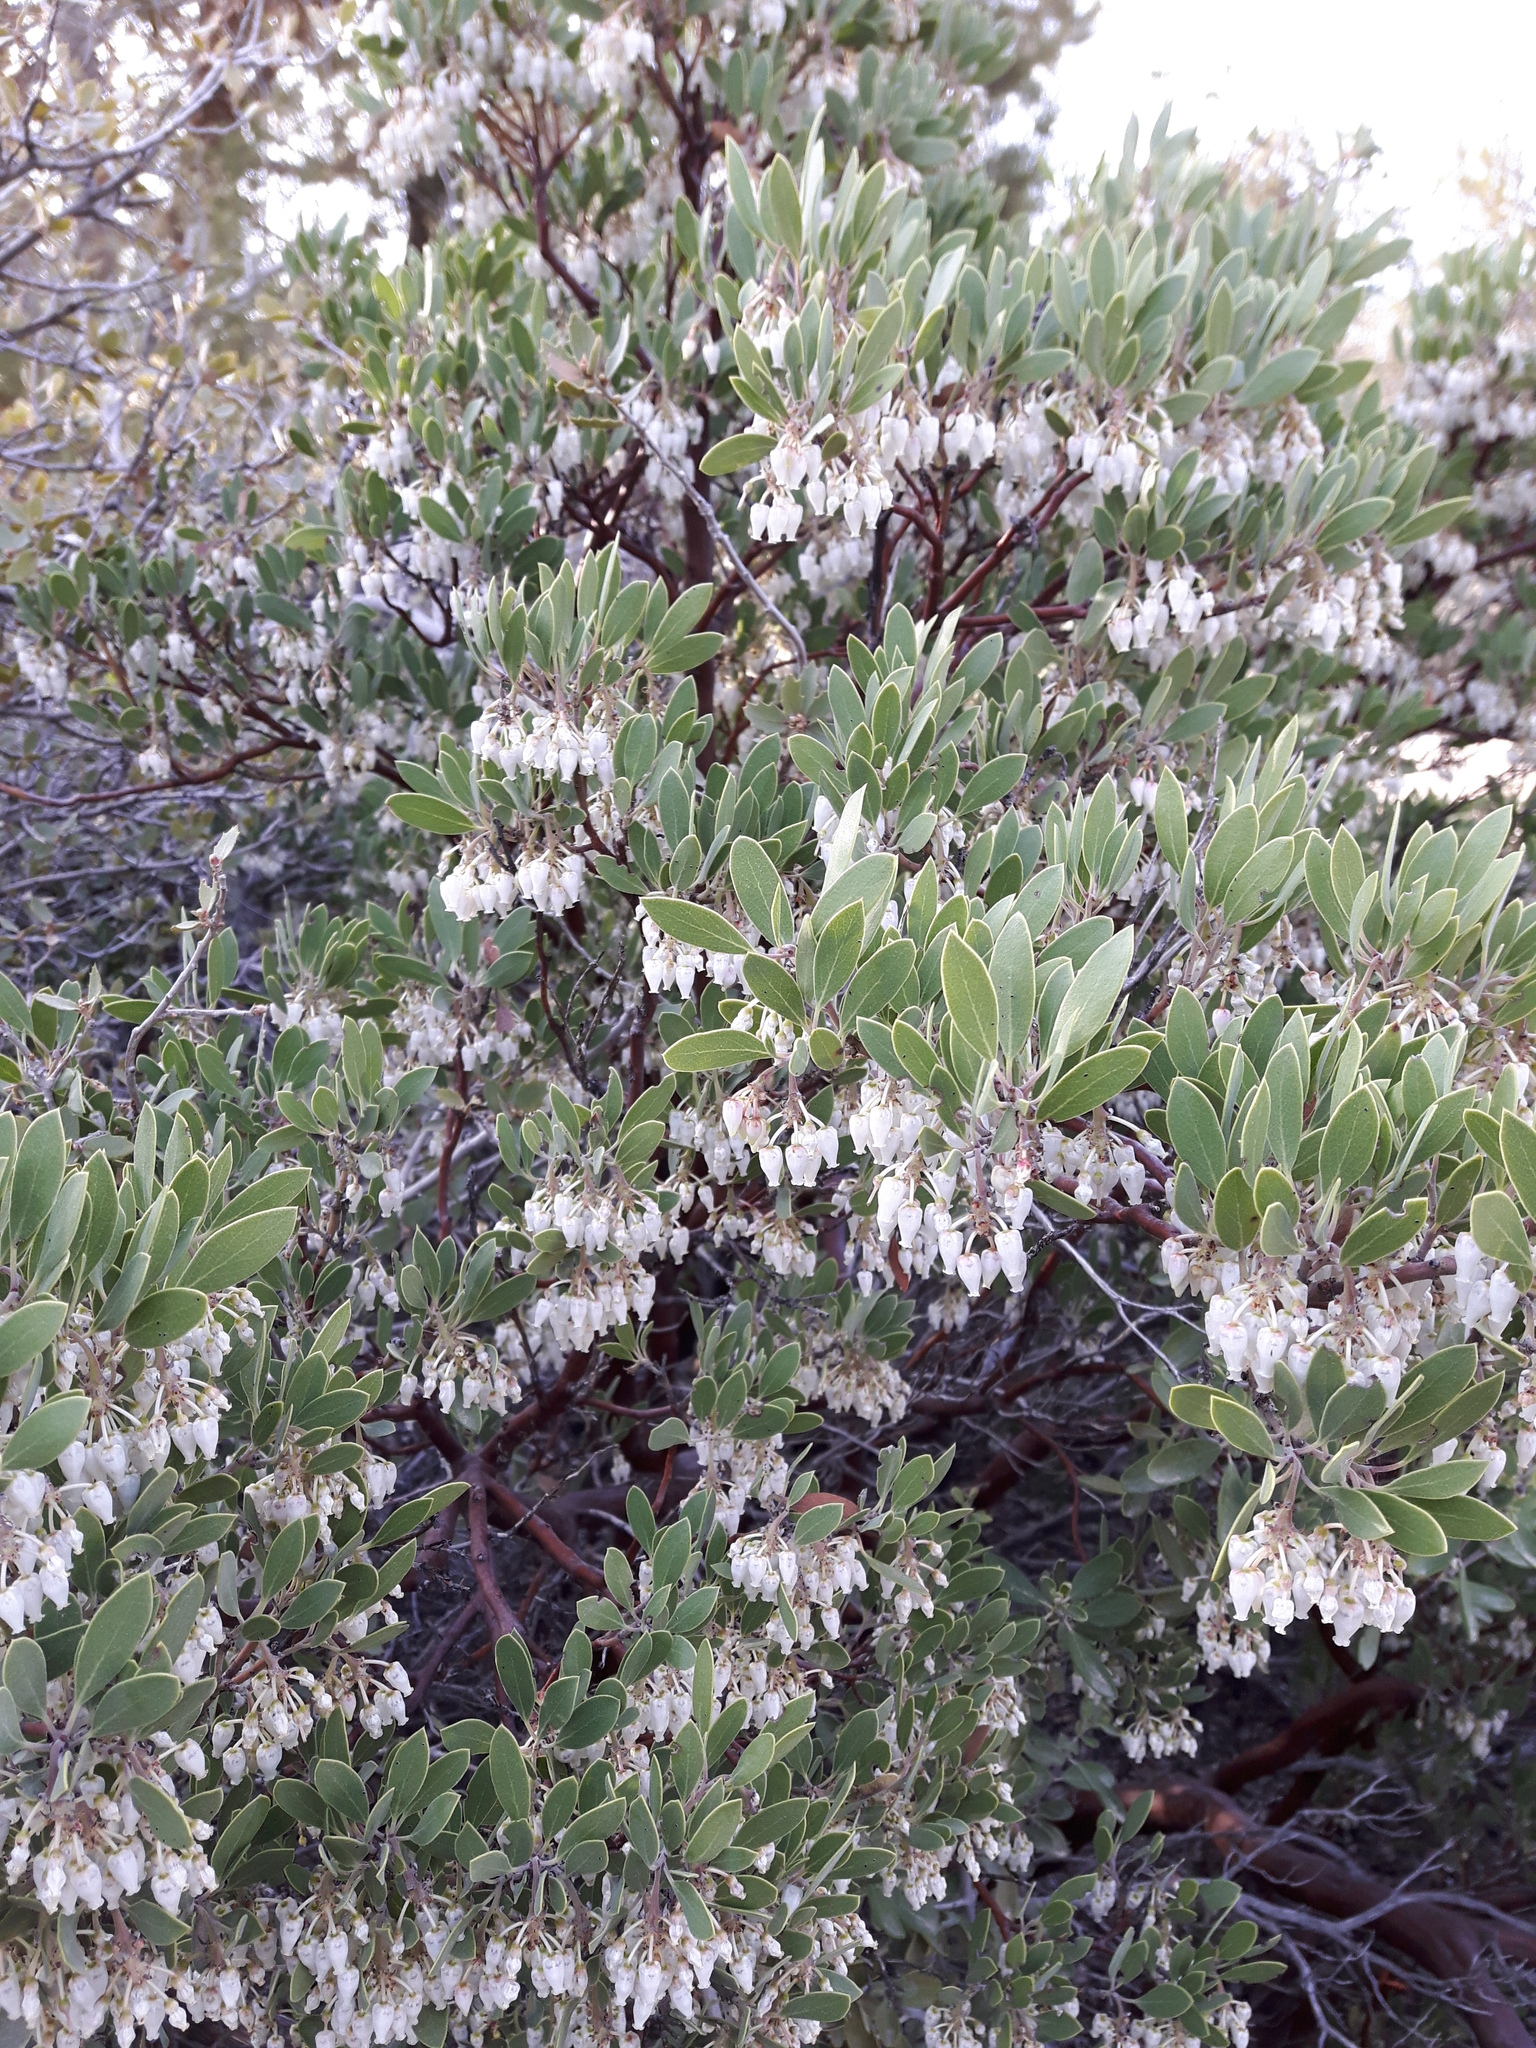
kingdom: Plantae
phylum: Tracheophyta
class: Magnoliopsida
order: Ericales
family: Ericaceae
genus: Arctostaphylos
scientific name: Arctostaphylos pungens
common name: Mexican manzanita
